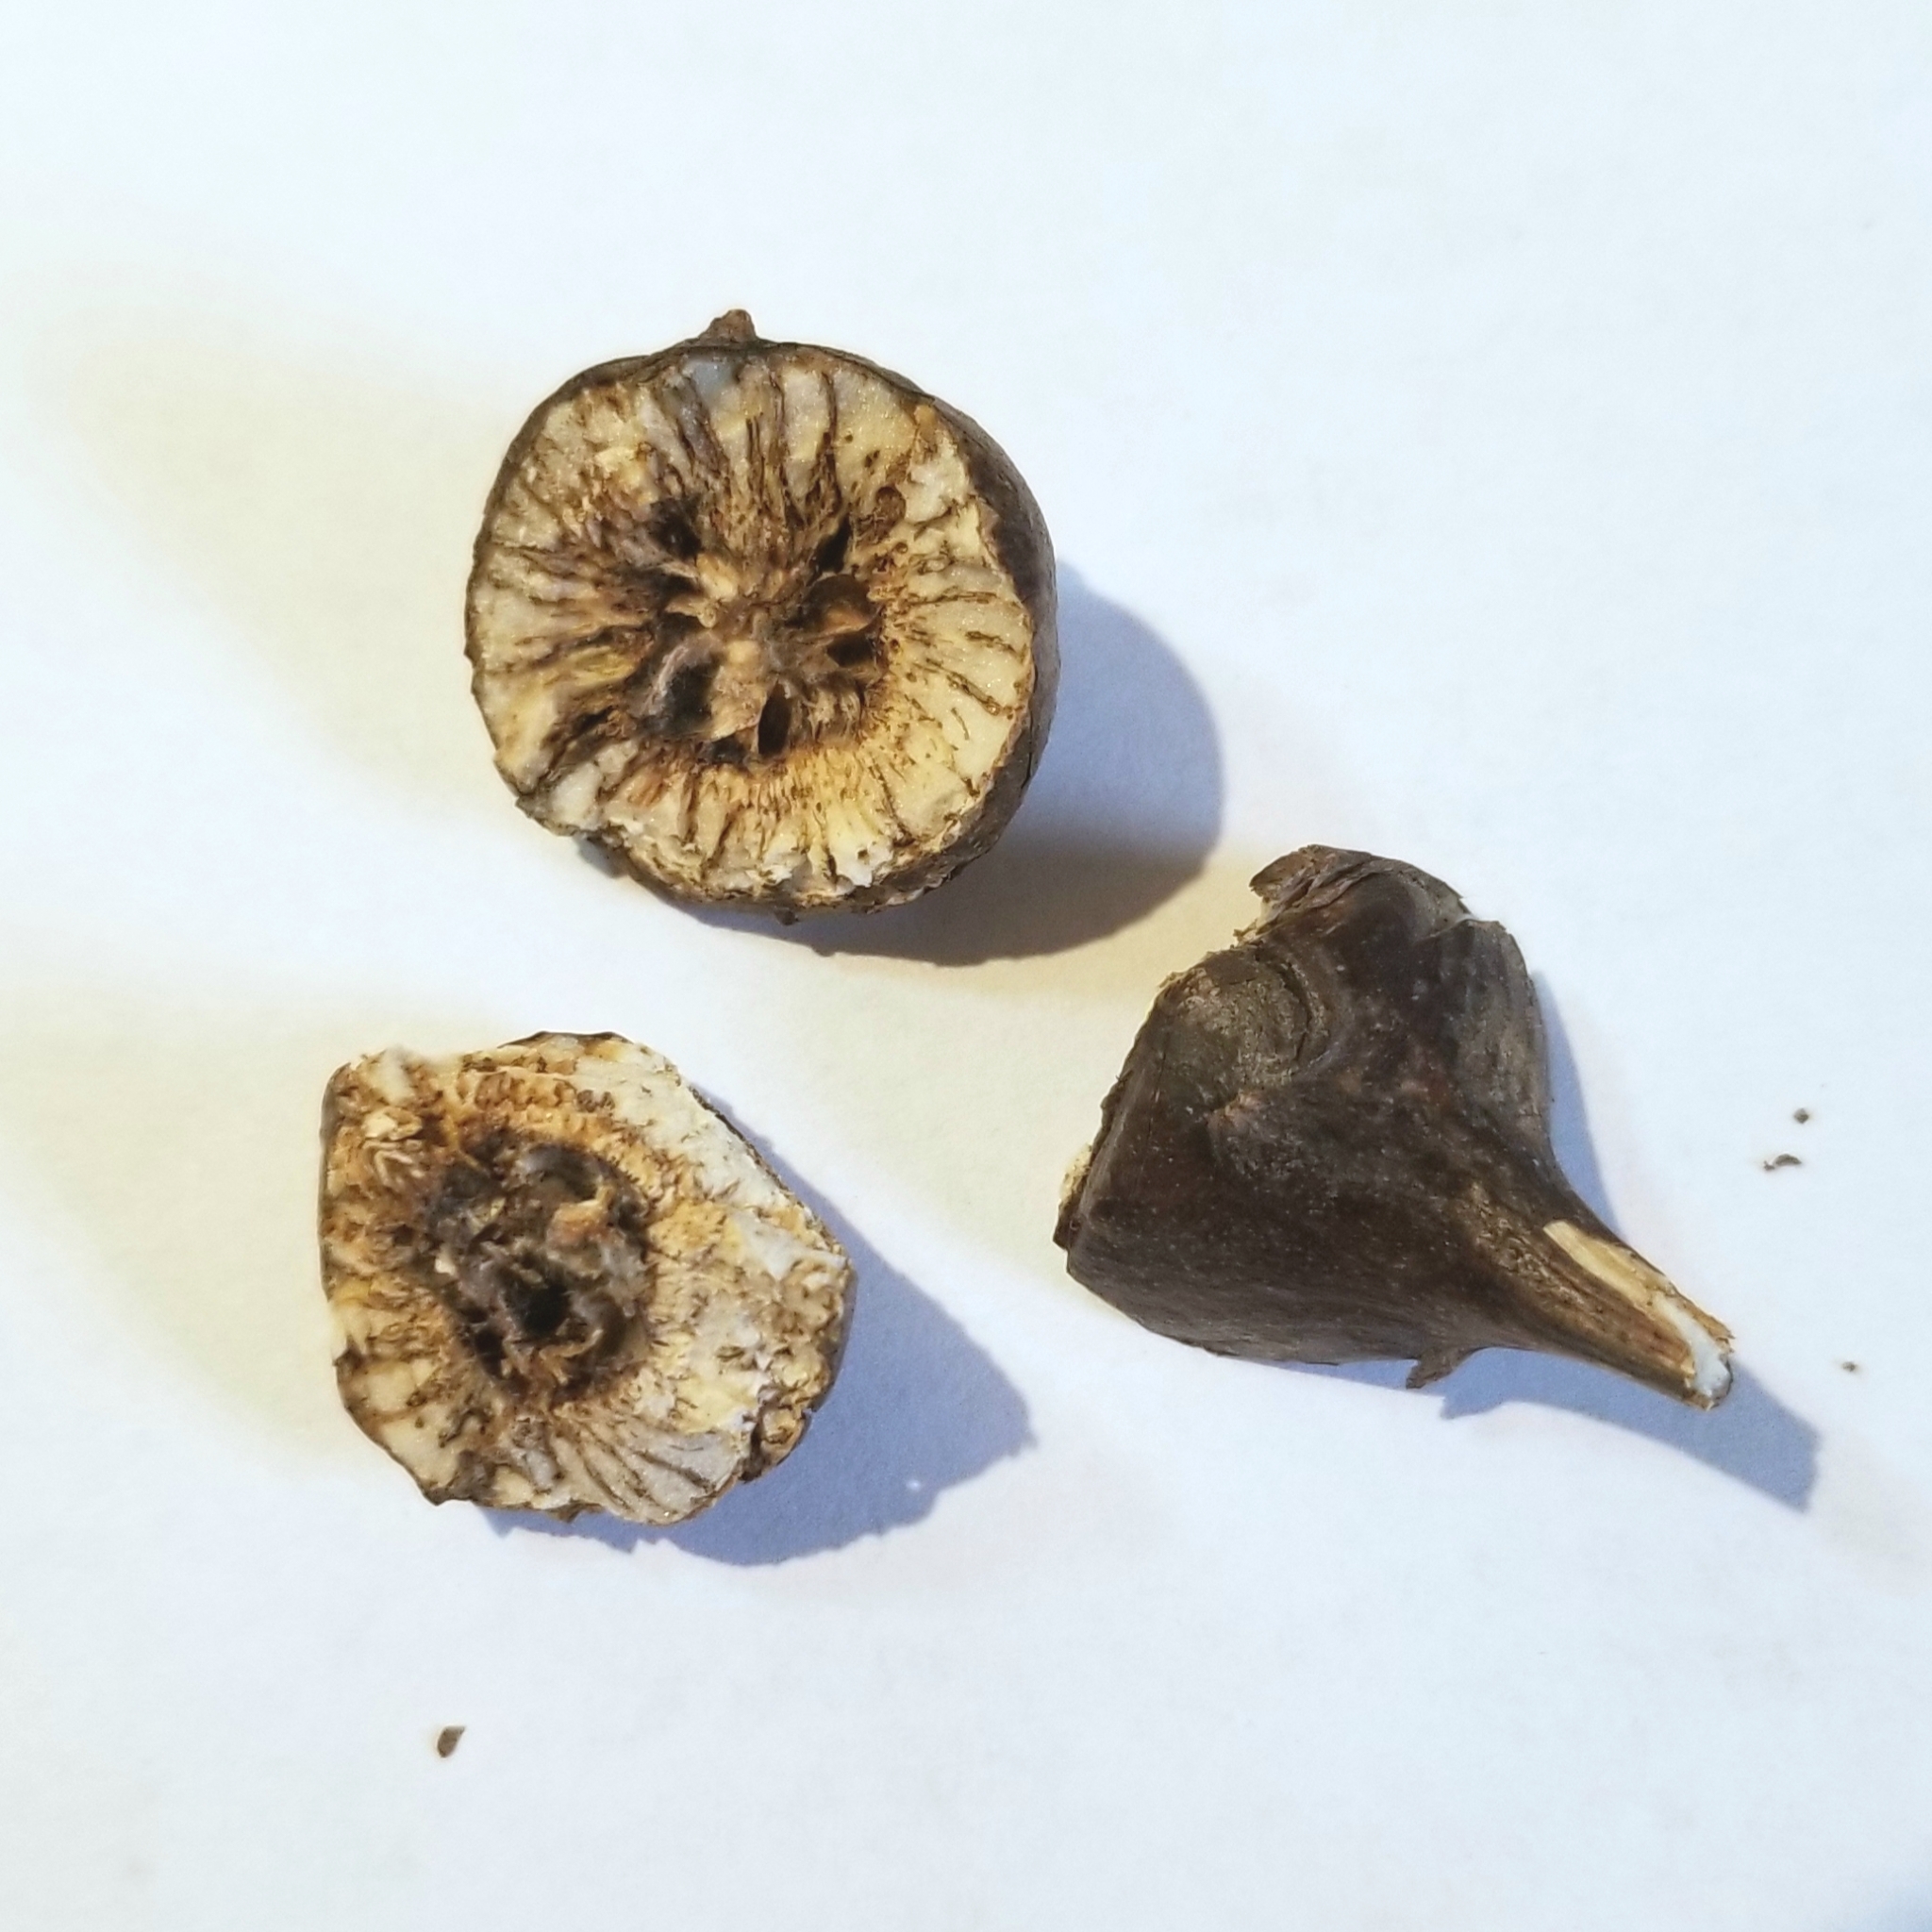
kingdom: Animalia
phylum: Arthropoda
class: Insecta
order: Diptera
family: Tephritidae
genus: Eurosta
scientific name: Eurosta solidaginis
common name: Goldenrod gall fly
